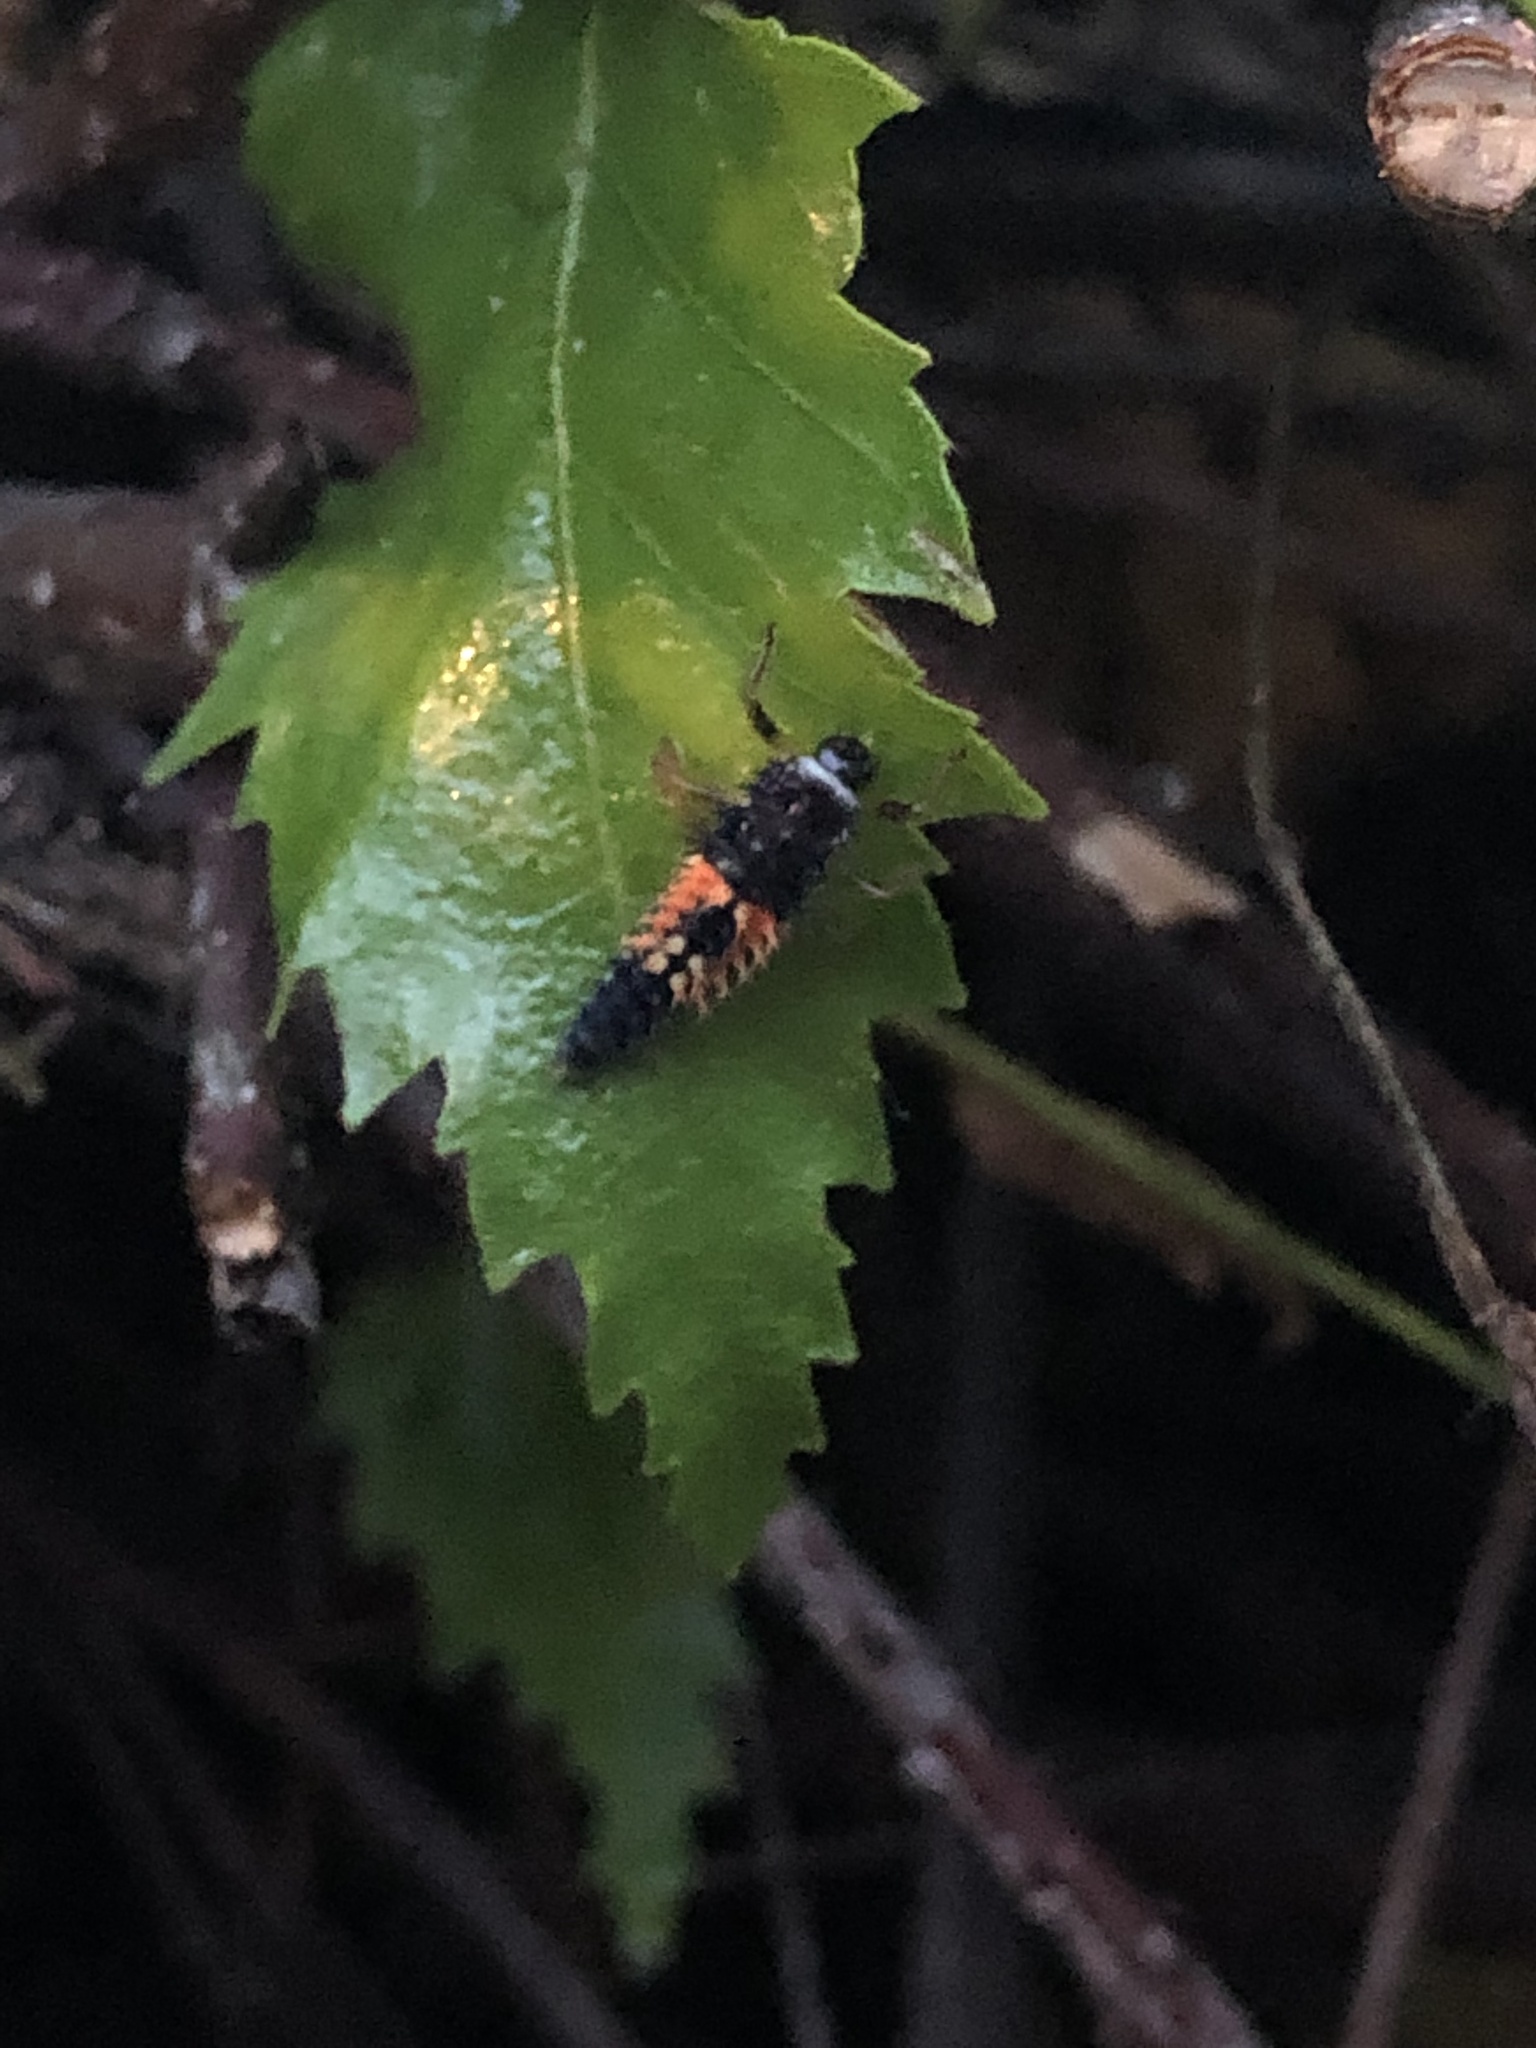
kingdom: Animalia
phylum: Arthropoda
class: Insecta
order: Coleoptera
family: Coccinellidae
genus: Harmonia
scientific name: Harmonia axyridis
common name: Harlequin ladybird
